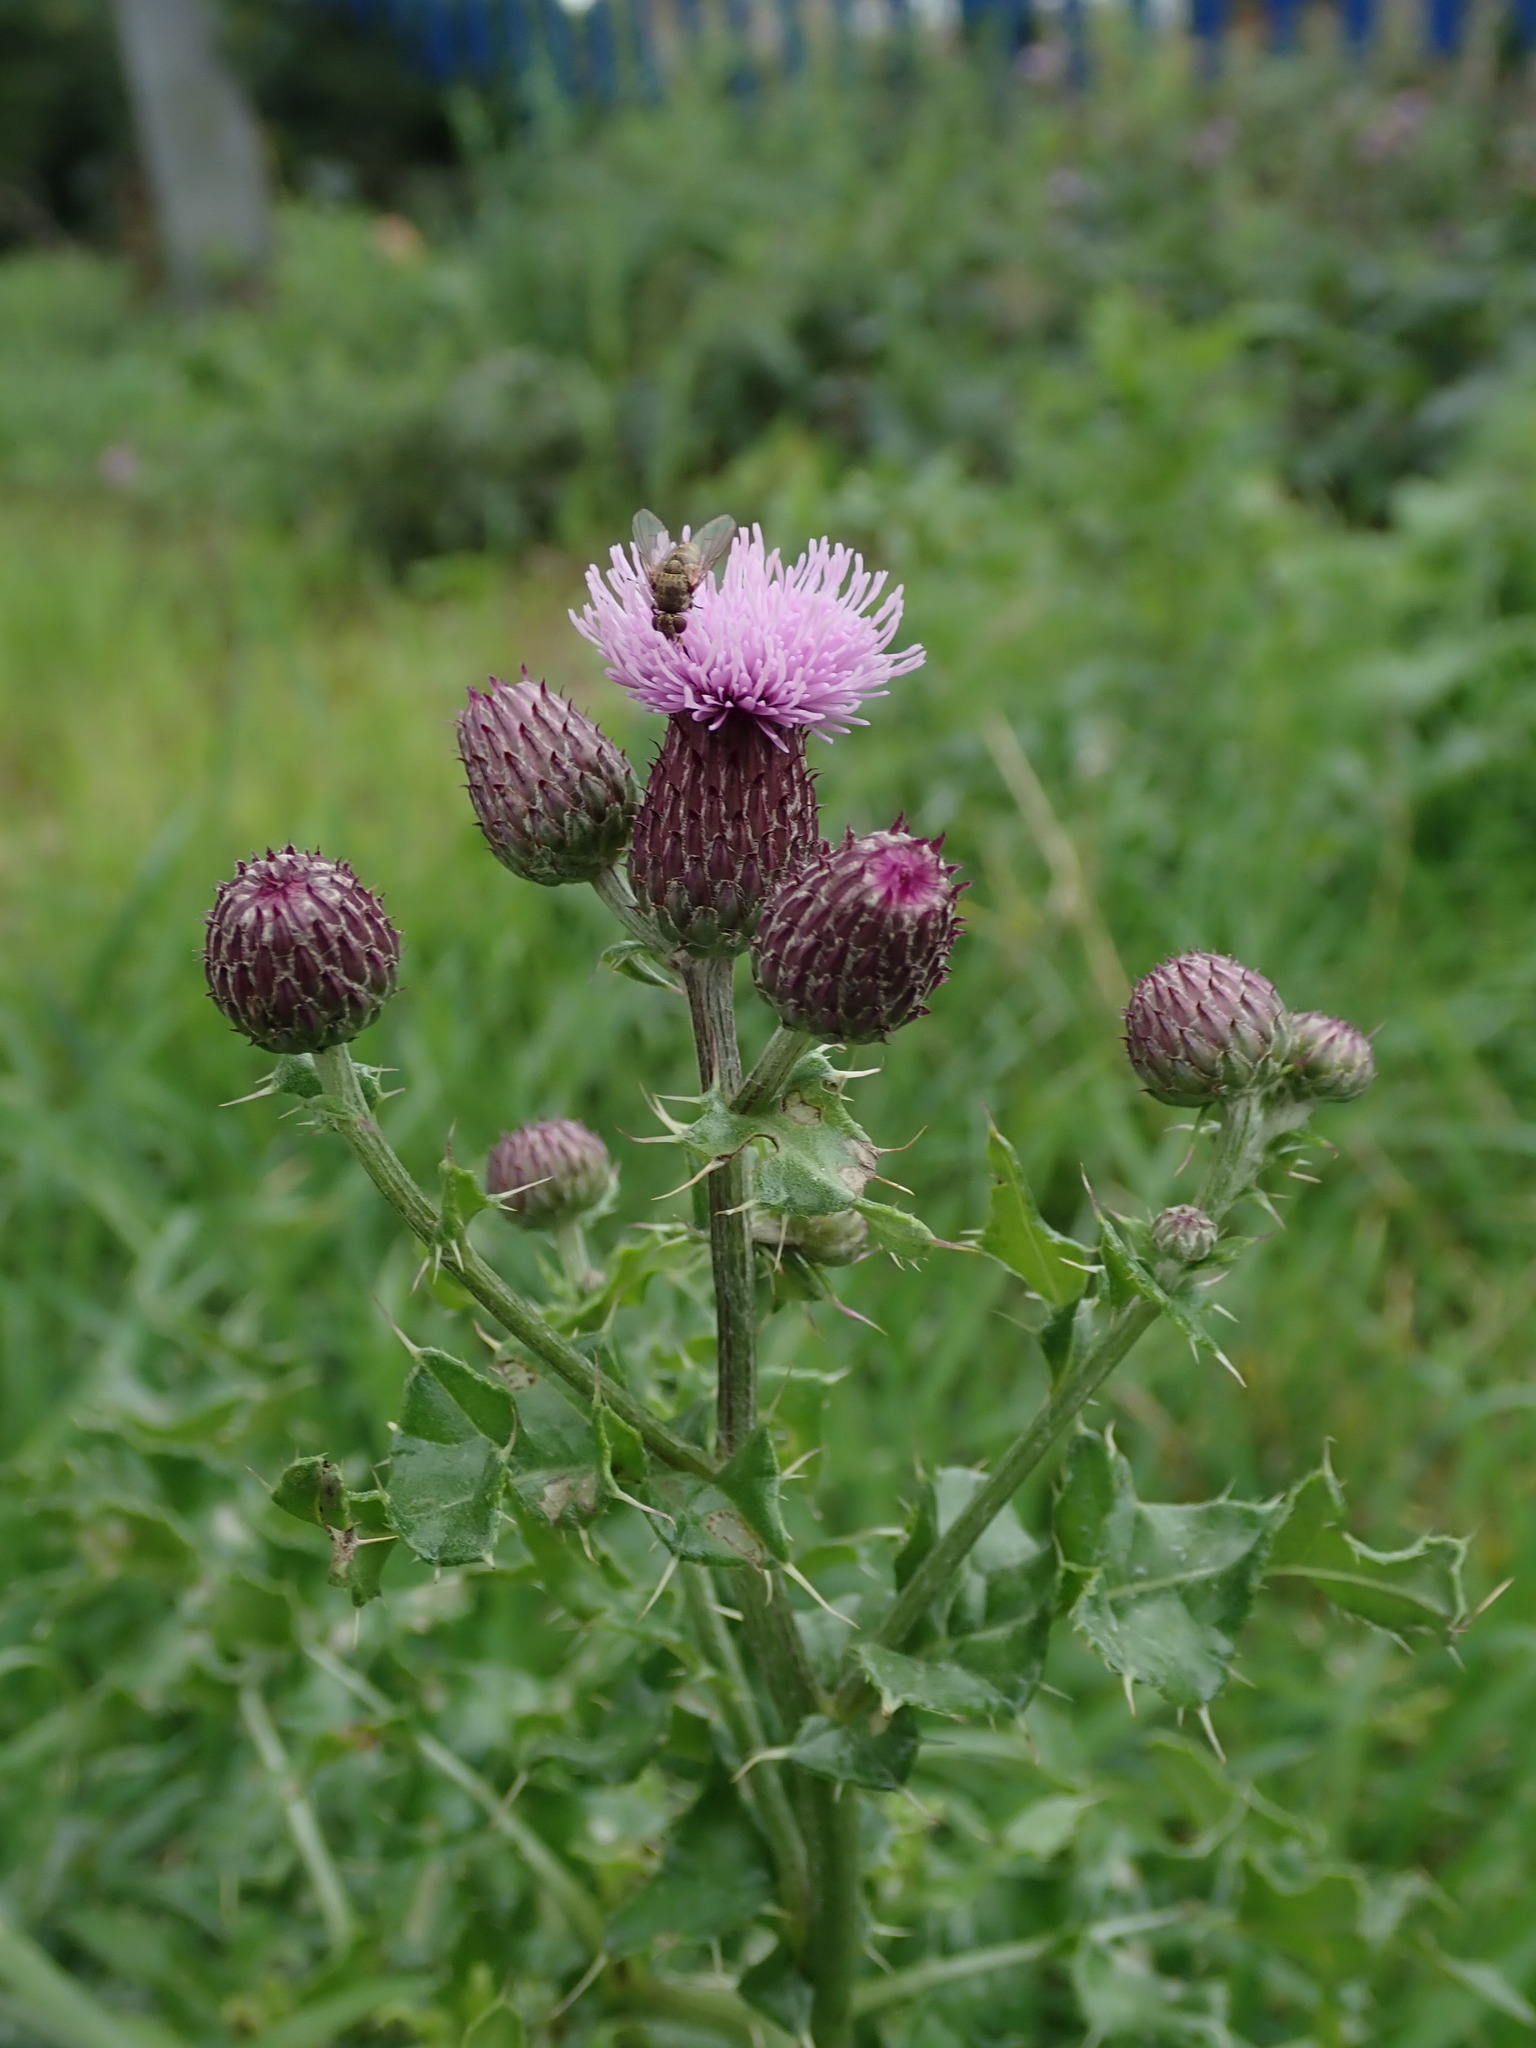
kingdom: Plantae
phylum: Tracheophyta
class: Magnoliopsida
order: Asterales
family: Asteraceae
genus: Cirsium
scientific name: Cirsium arvense
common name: Creeping thistle
